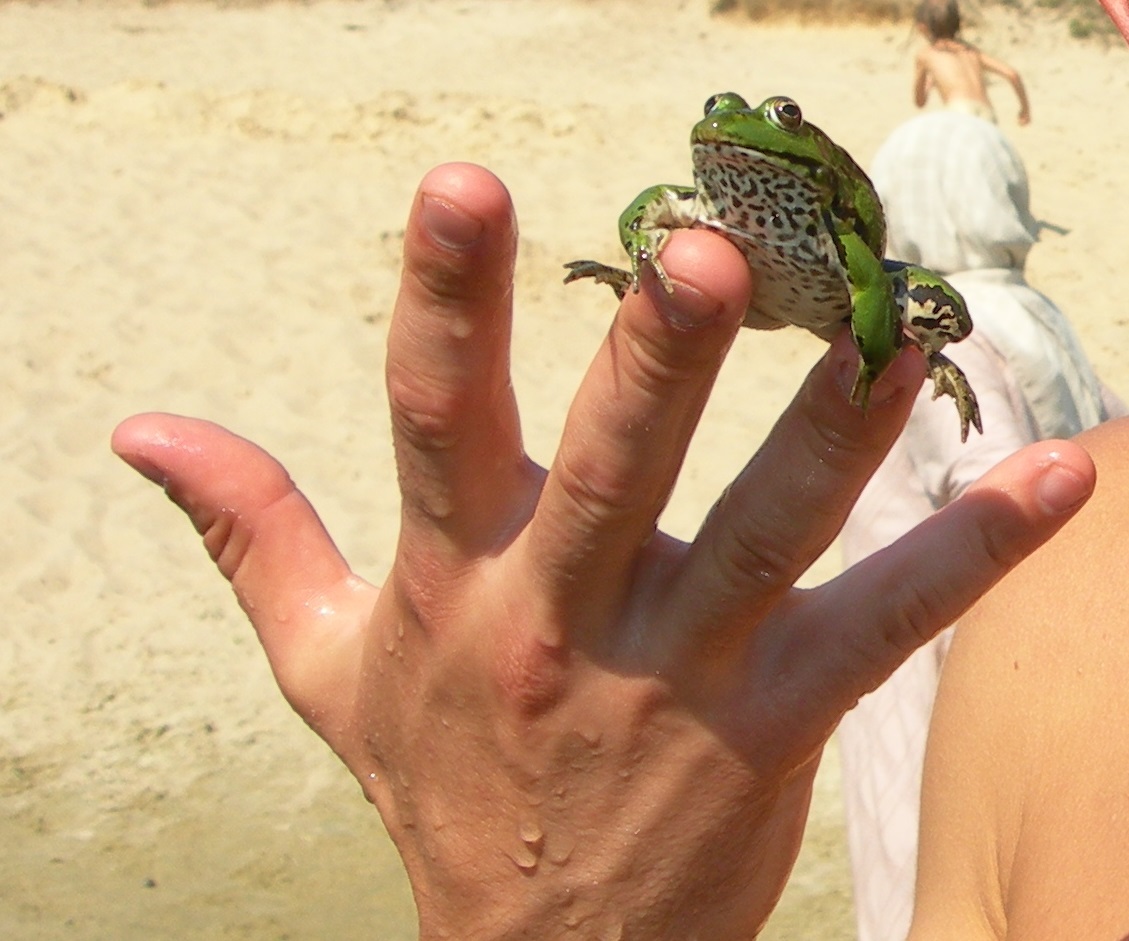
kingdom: Animalia
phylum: Chordata
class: Amphibia
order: Anura
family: Ranidae
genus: Pelophylax
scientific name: Pelophylax ridibundus
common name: Marsh frog
